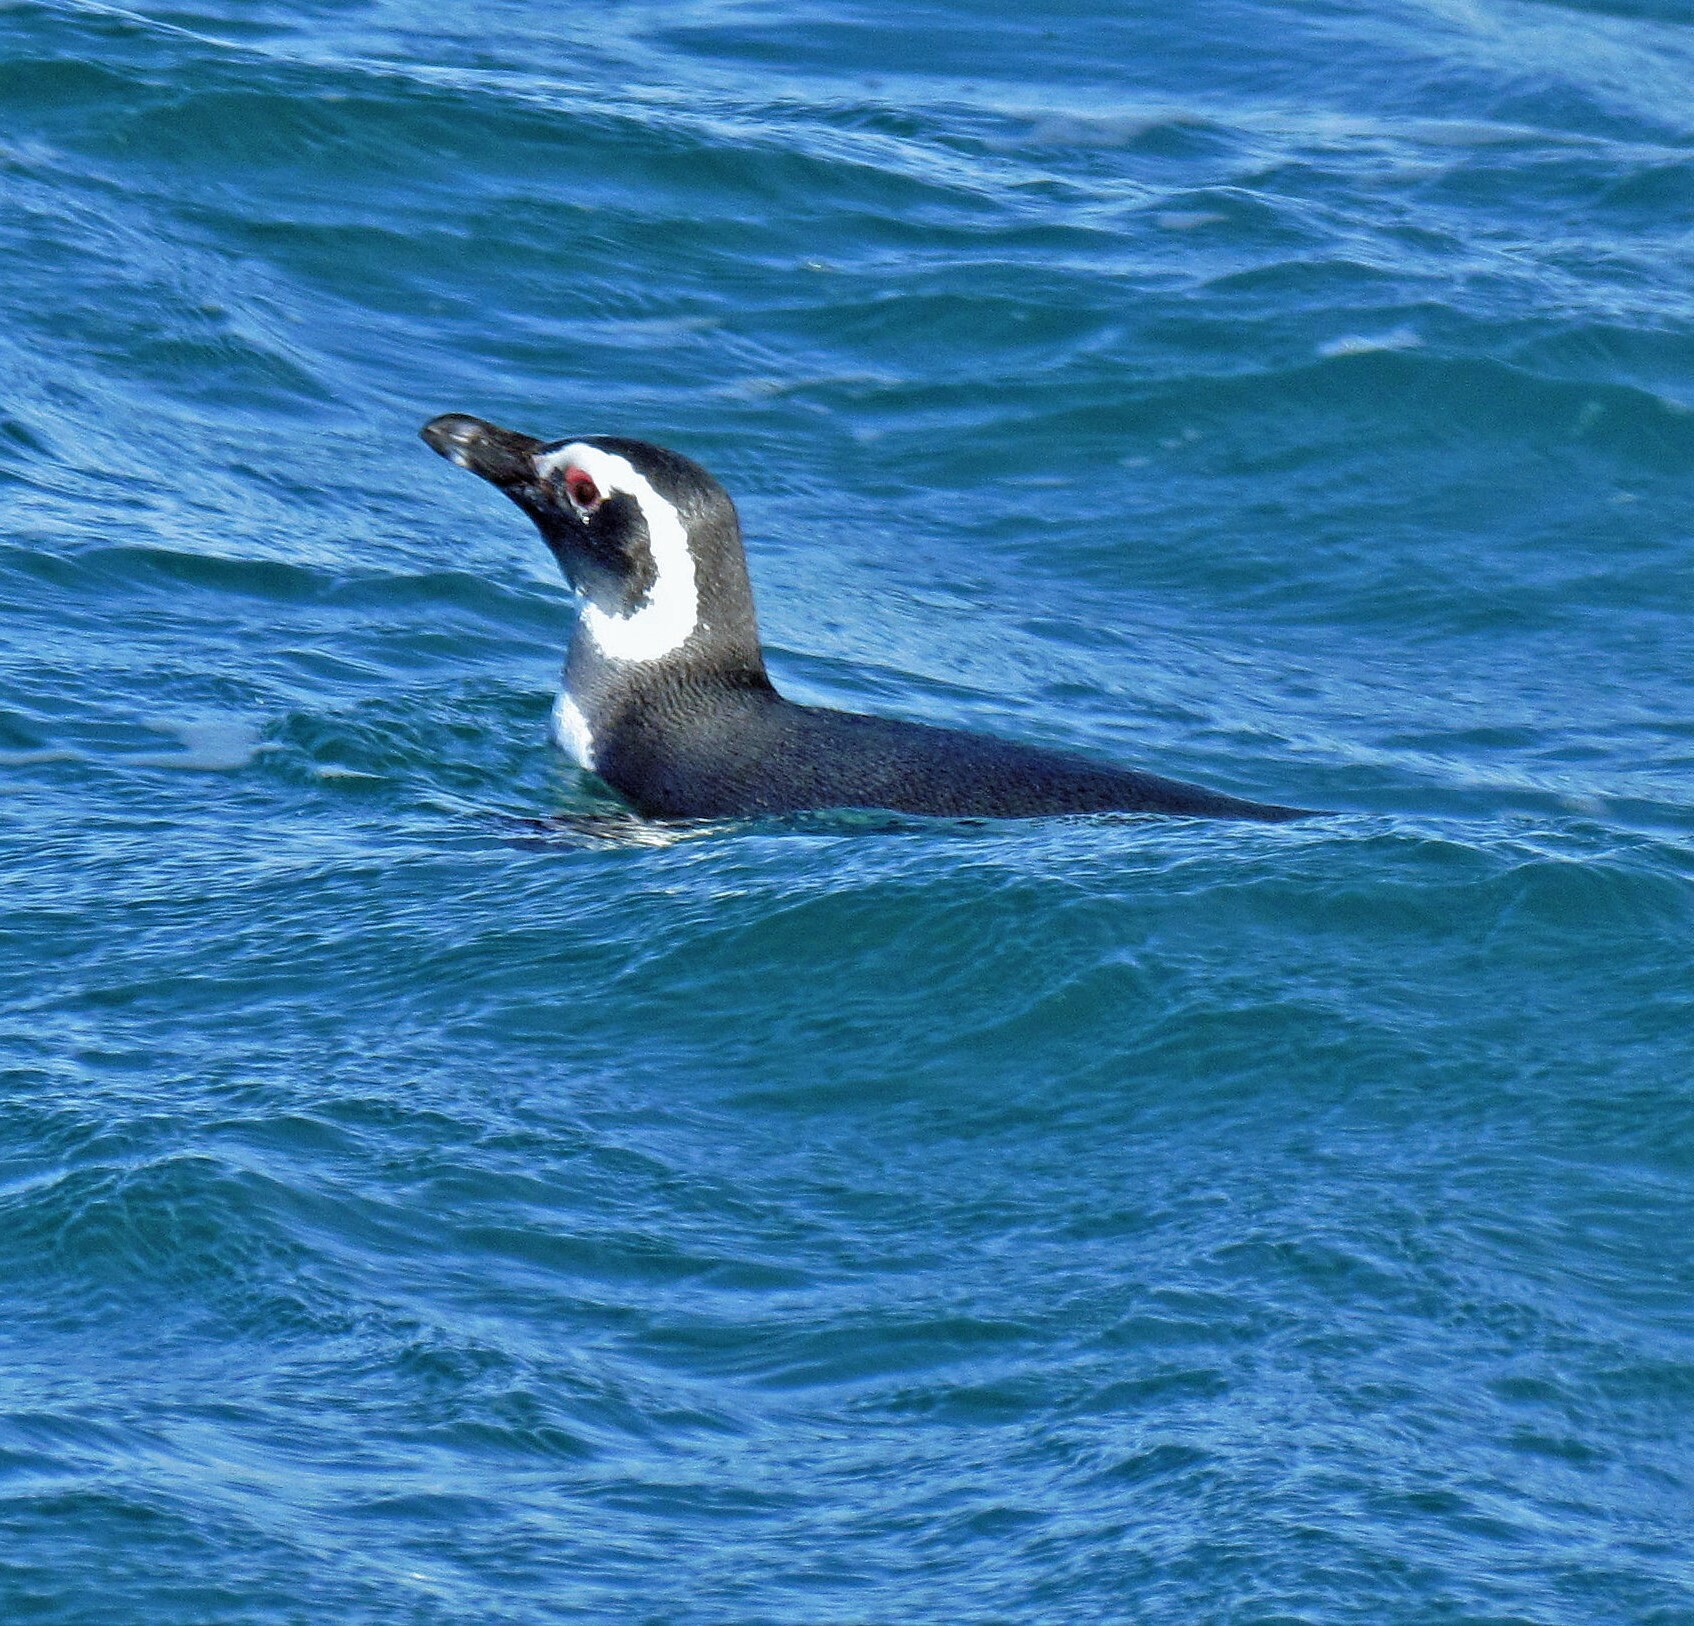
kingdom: Animalia
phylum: Chordata
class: Aves
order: Sphenisciformes
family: Spheniscidae
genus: Spheniscus
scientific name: Spheniscus magellanicus
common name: Magellanic penguin
